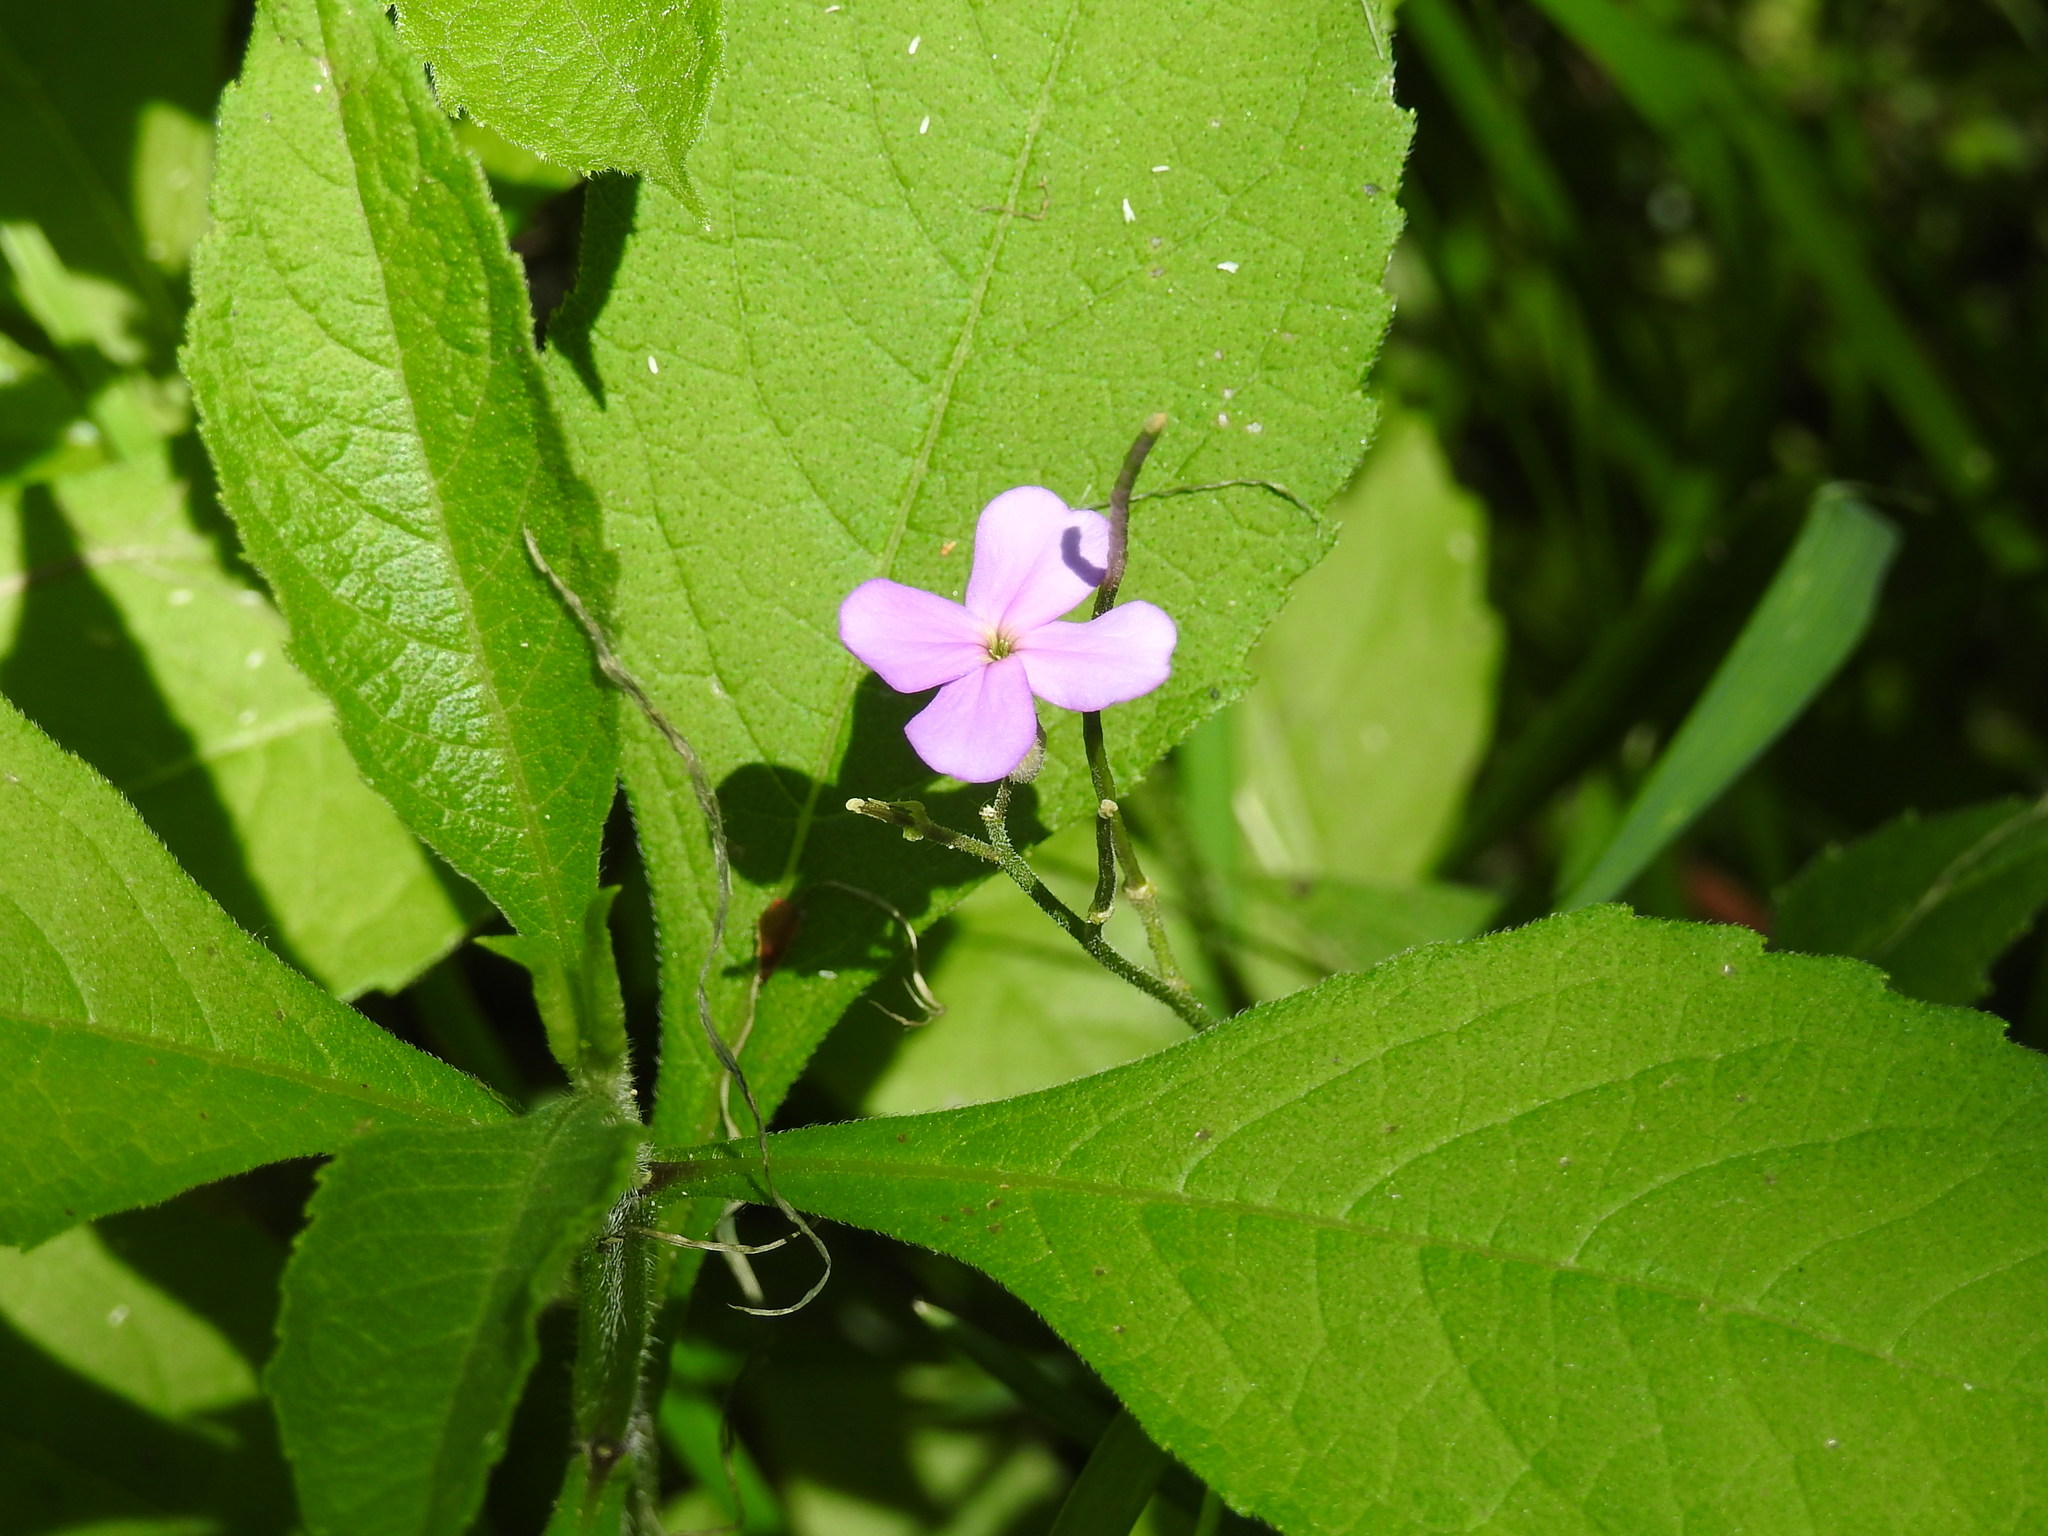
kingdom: Plantae
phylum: Tracheophyta
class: Magnoliopsida
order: Brassicales
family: Brassicaceae
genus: Hesperis
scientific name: Hesperis matronalis
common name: Dame's-violet
